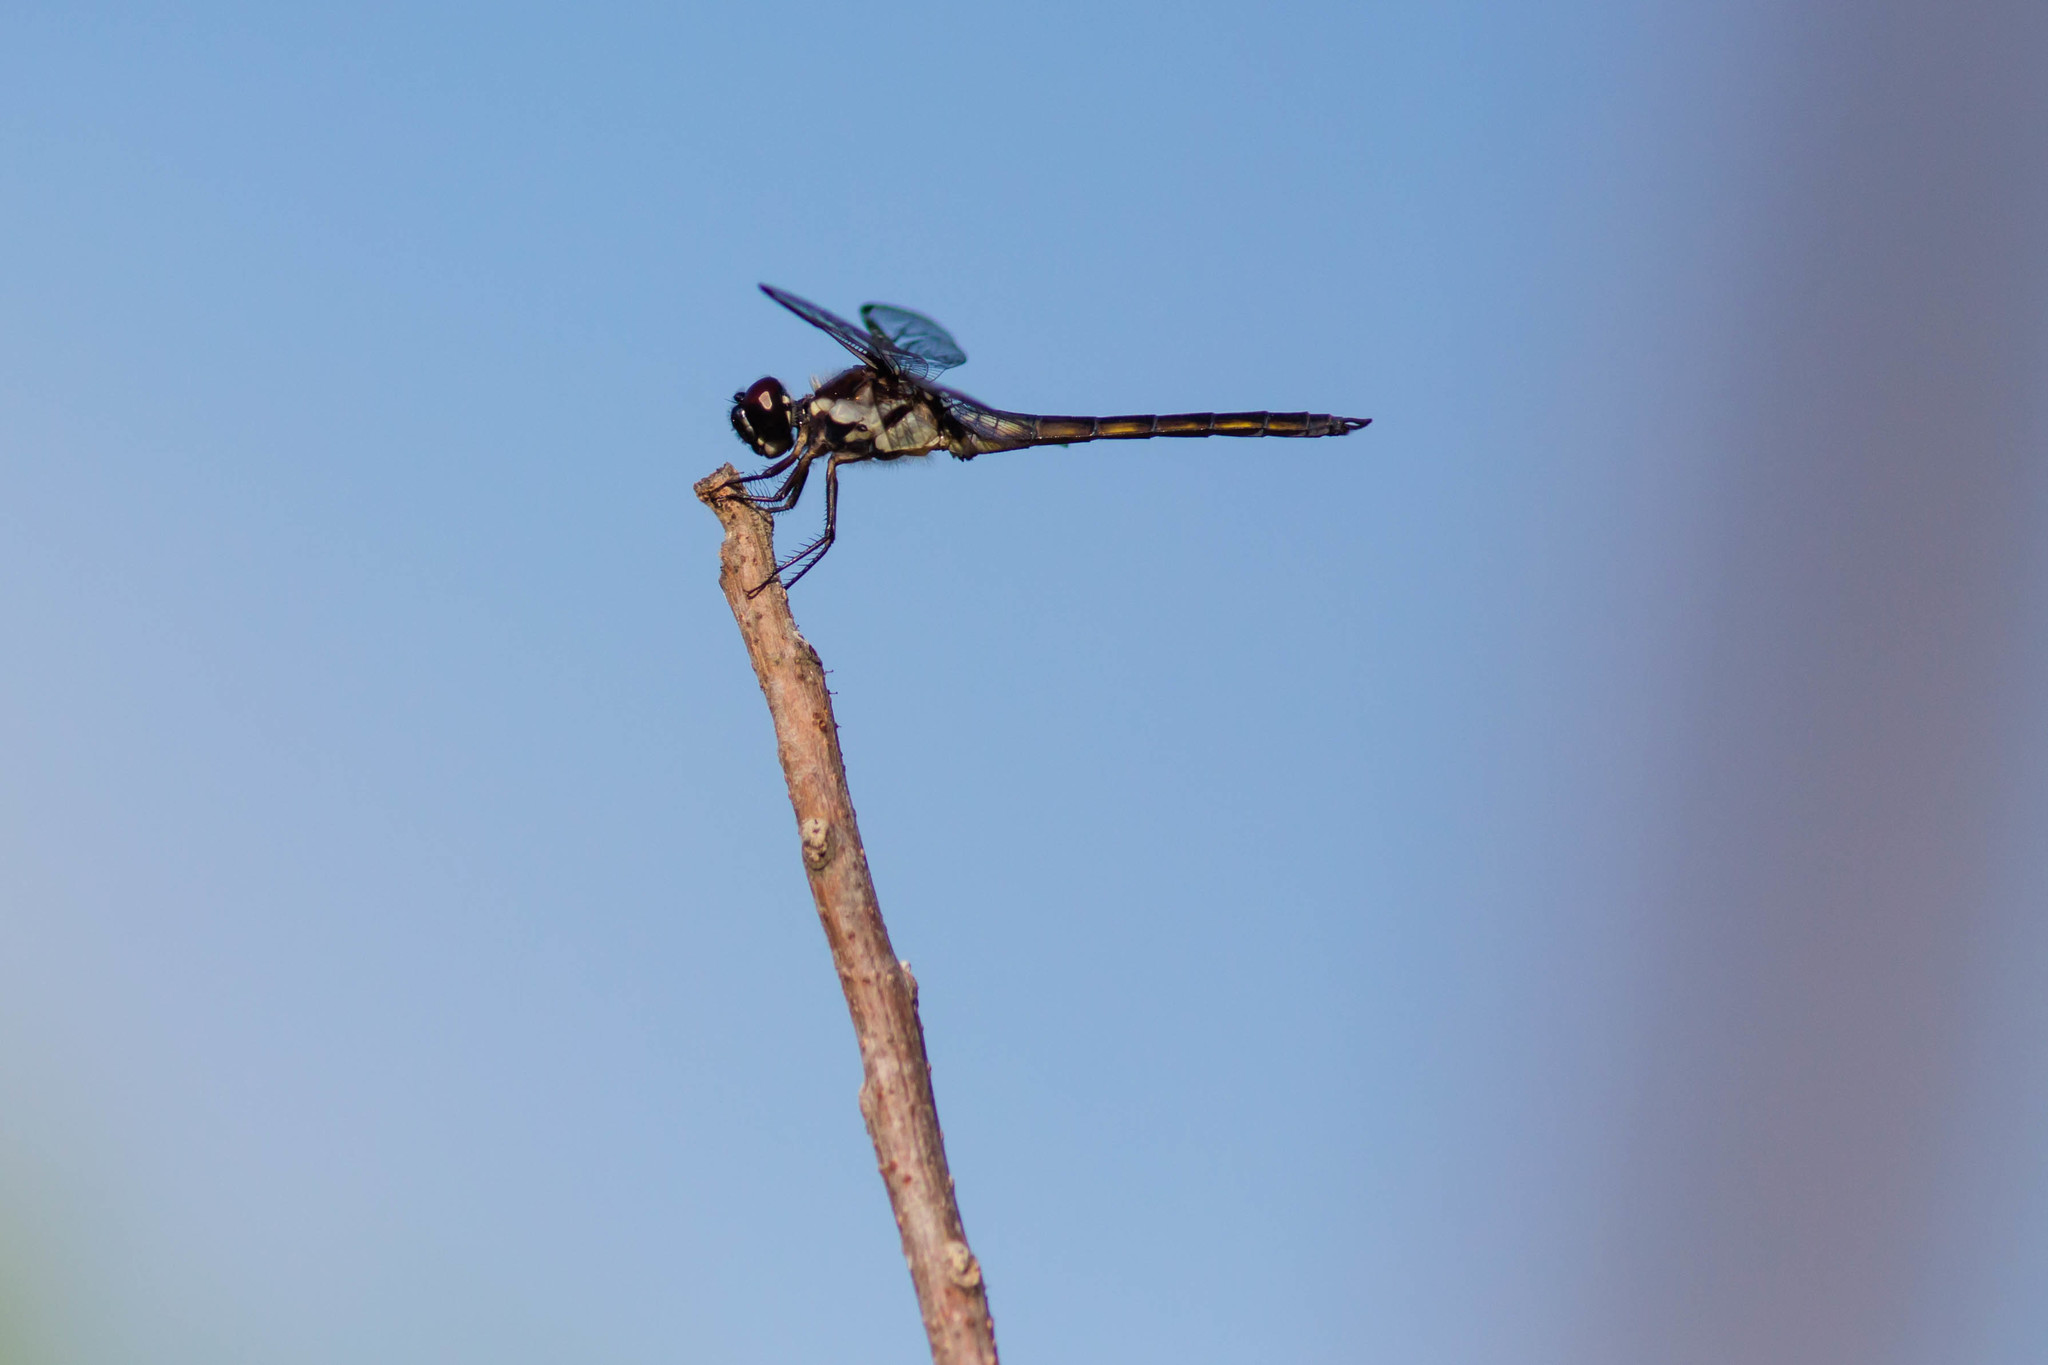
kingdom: Animalia
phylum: Arthropoda
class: Insecta
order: Odonata
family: Libellulidae
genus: Libellula
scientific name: Libellula axilena
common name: Bar-winged skimmer
